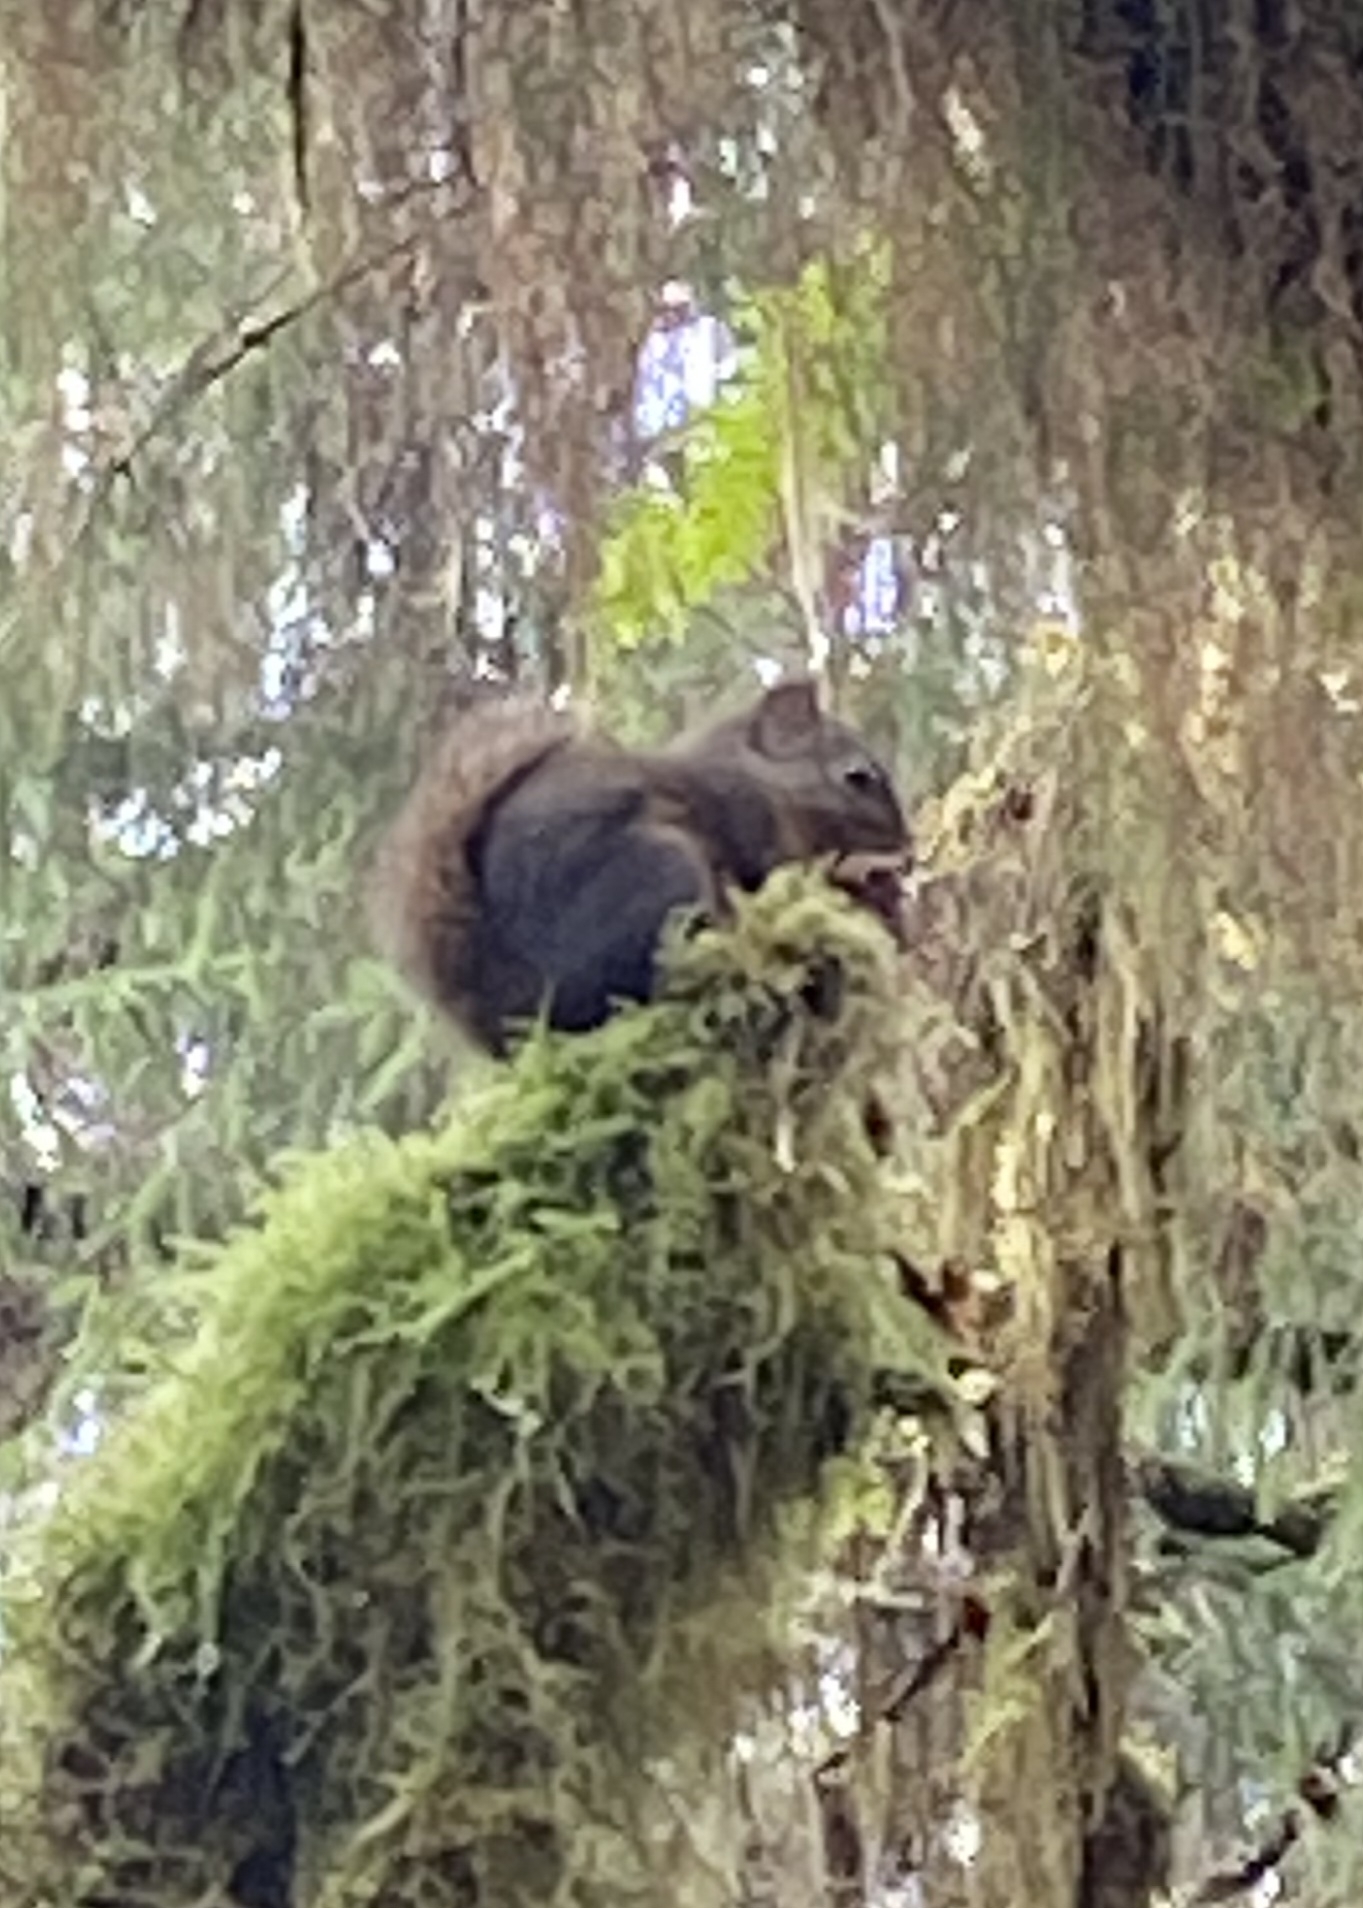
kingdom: Animalia
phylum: Chordata
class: Mammalia
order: Rodentia
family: Sciuridae
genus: Tamiasciurus
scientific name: Tamiasciurus douglasii
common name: Douglas's squirrel
